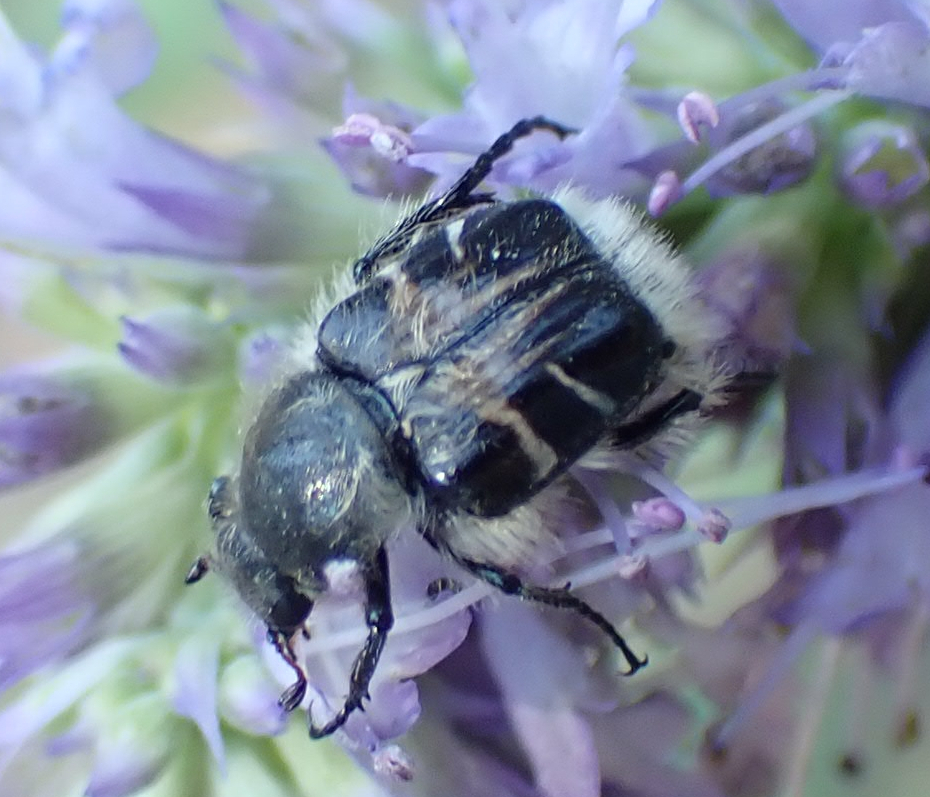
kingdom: Animalia
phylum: Arthropoda
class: Insecta
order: Coleoptera
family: Scarabaeidae
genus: Trichiotinus
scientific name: Trichiotinus assimilis
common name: Bee-mimic beetle
